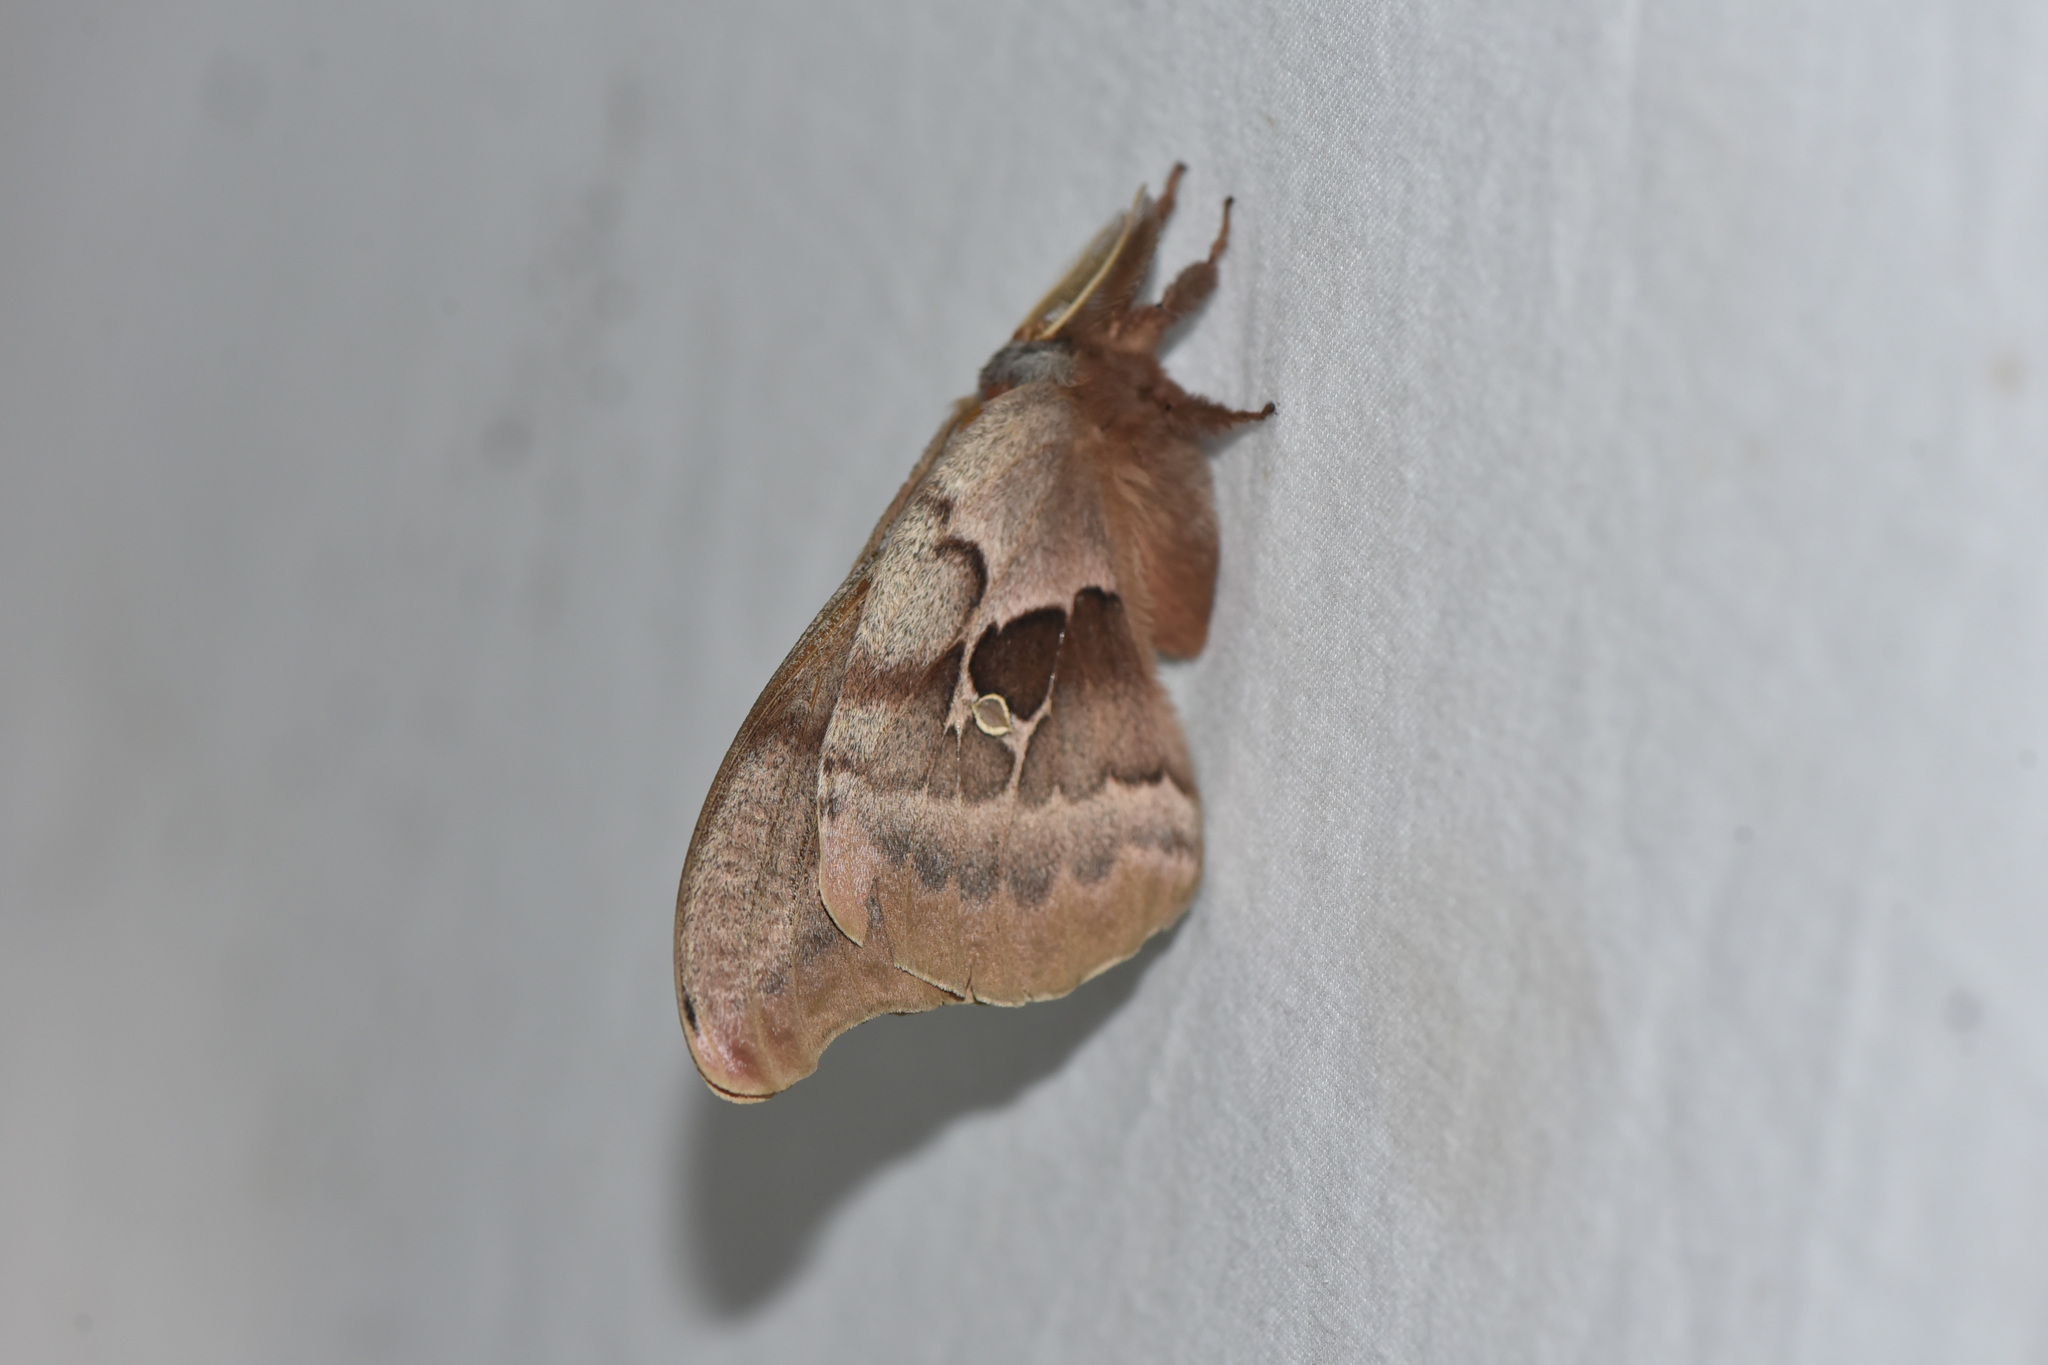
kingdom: Animalia
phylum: Arthropoda
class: Insecta
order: Lepidoptera
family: Saturniidae
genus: Antheraea
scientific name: Antheraea polyphemus
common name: Polyphemus moth
